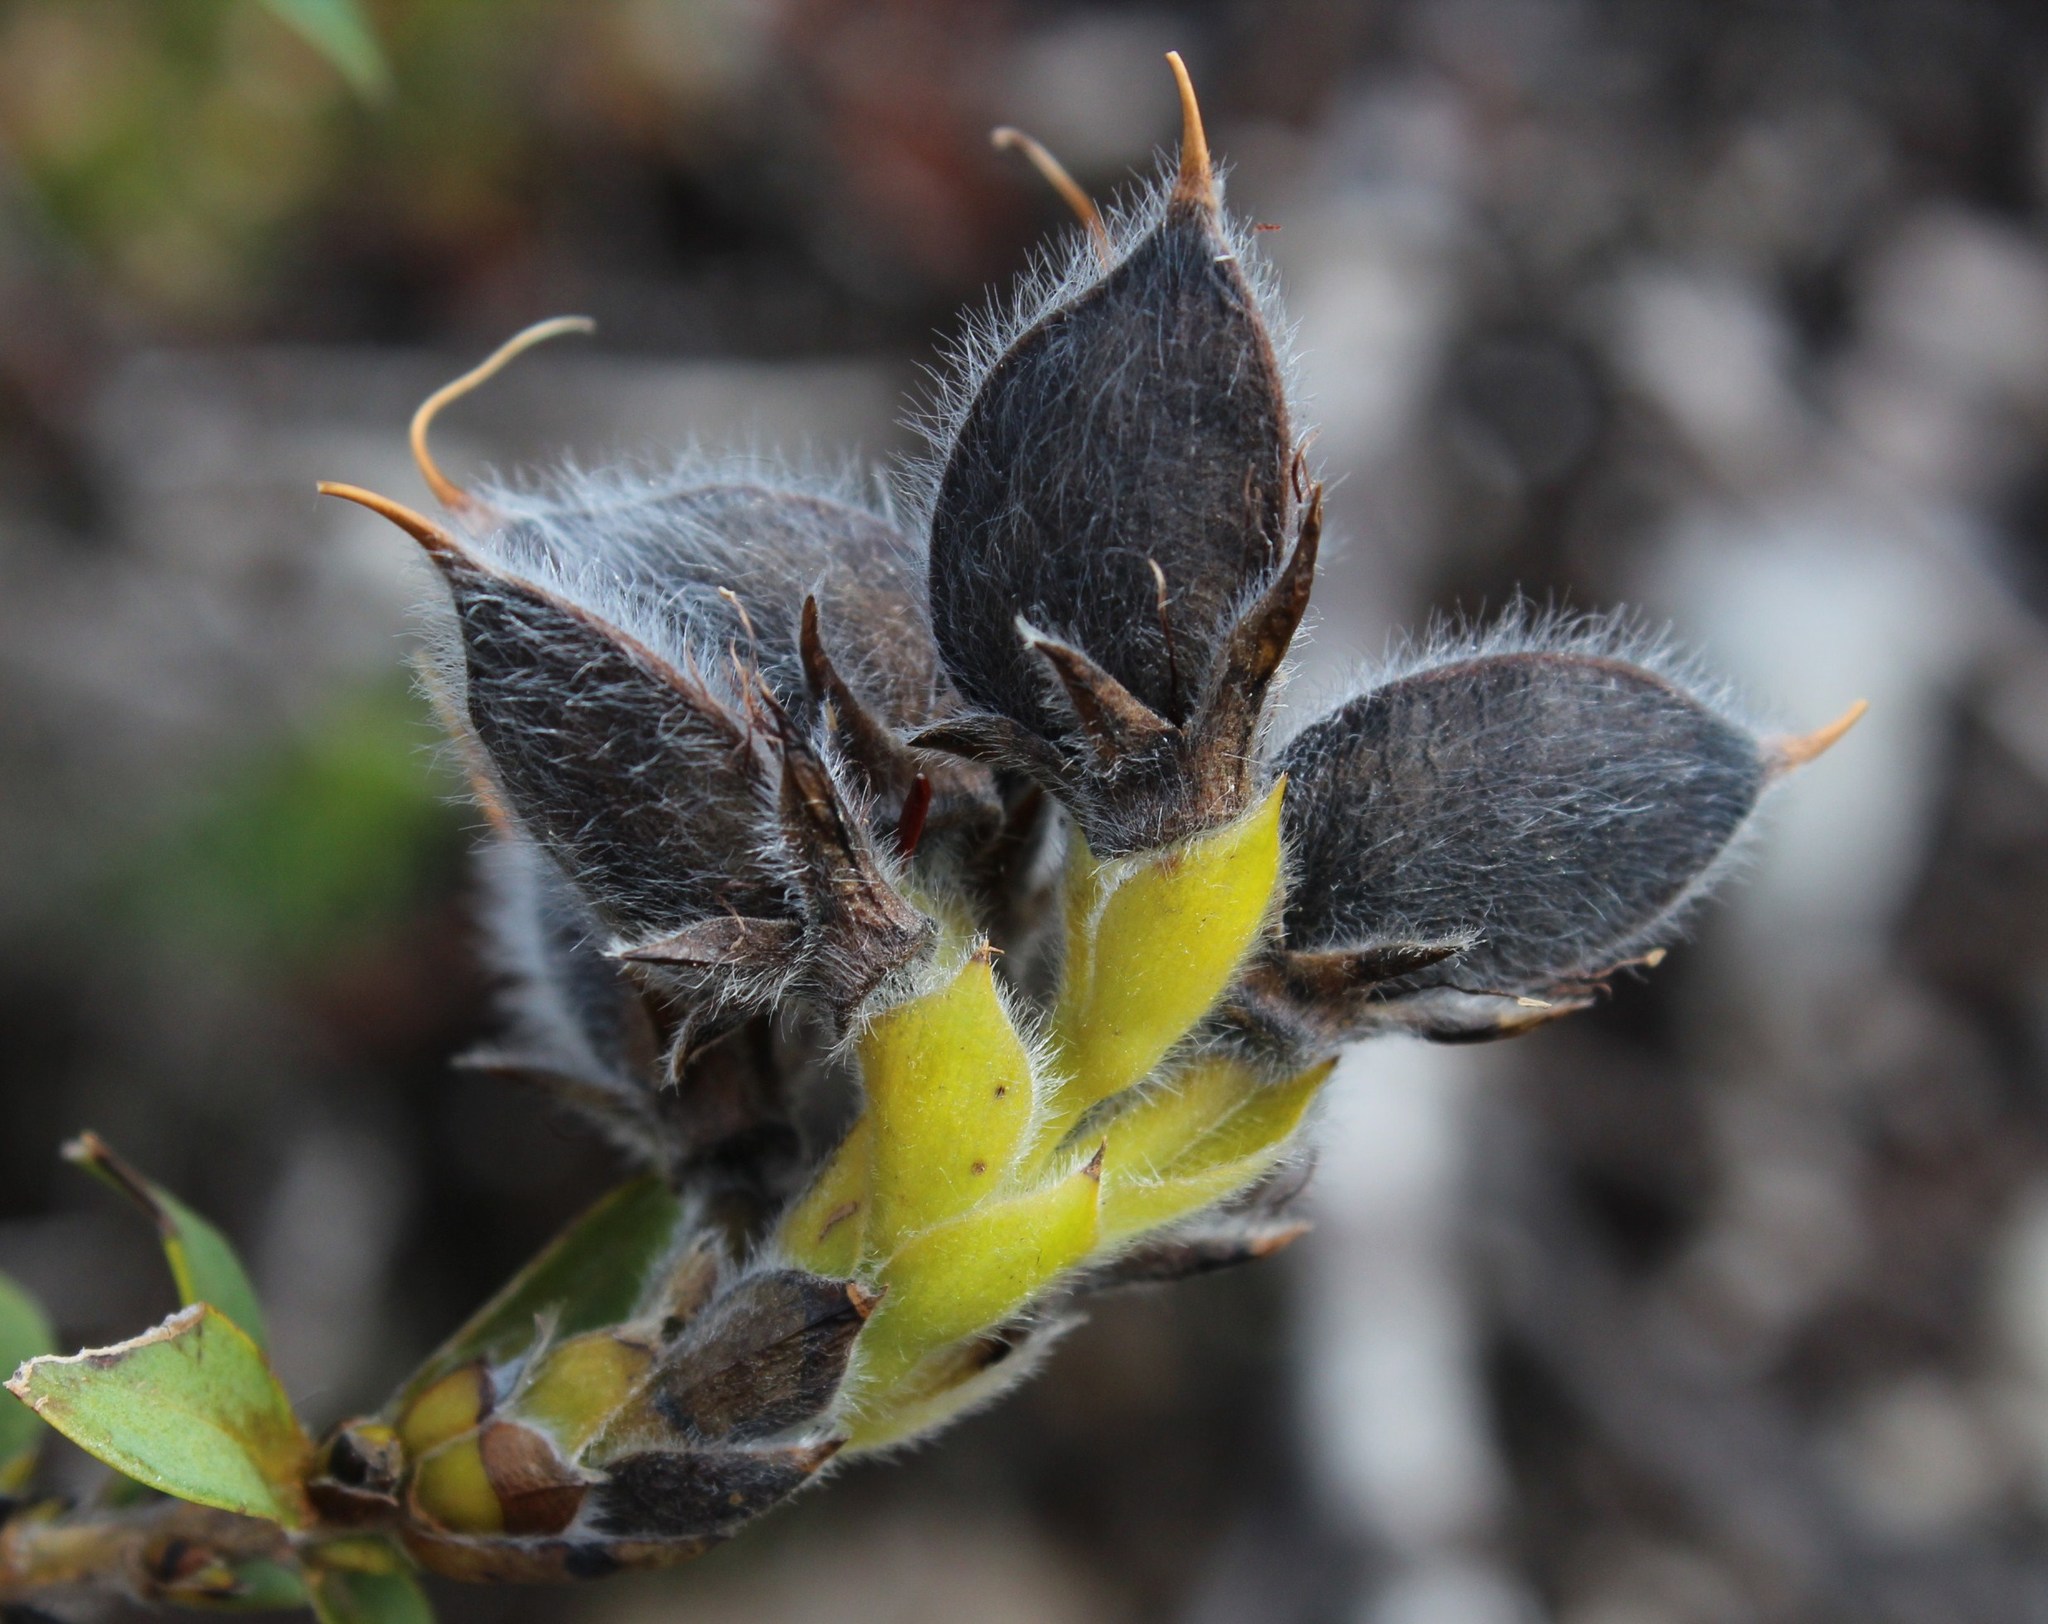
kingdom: Plantae
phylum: Tracheophyta
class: Magnoliopsida
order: Fabales
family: Fabaceae
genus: Liparia
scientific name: Liparia hirsuta
